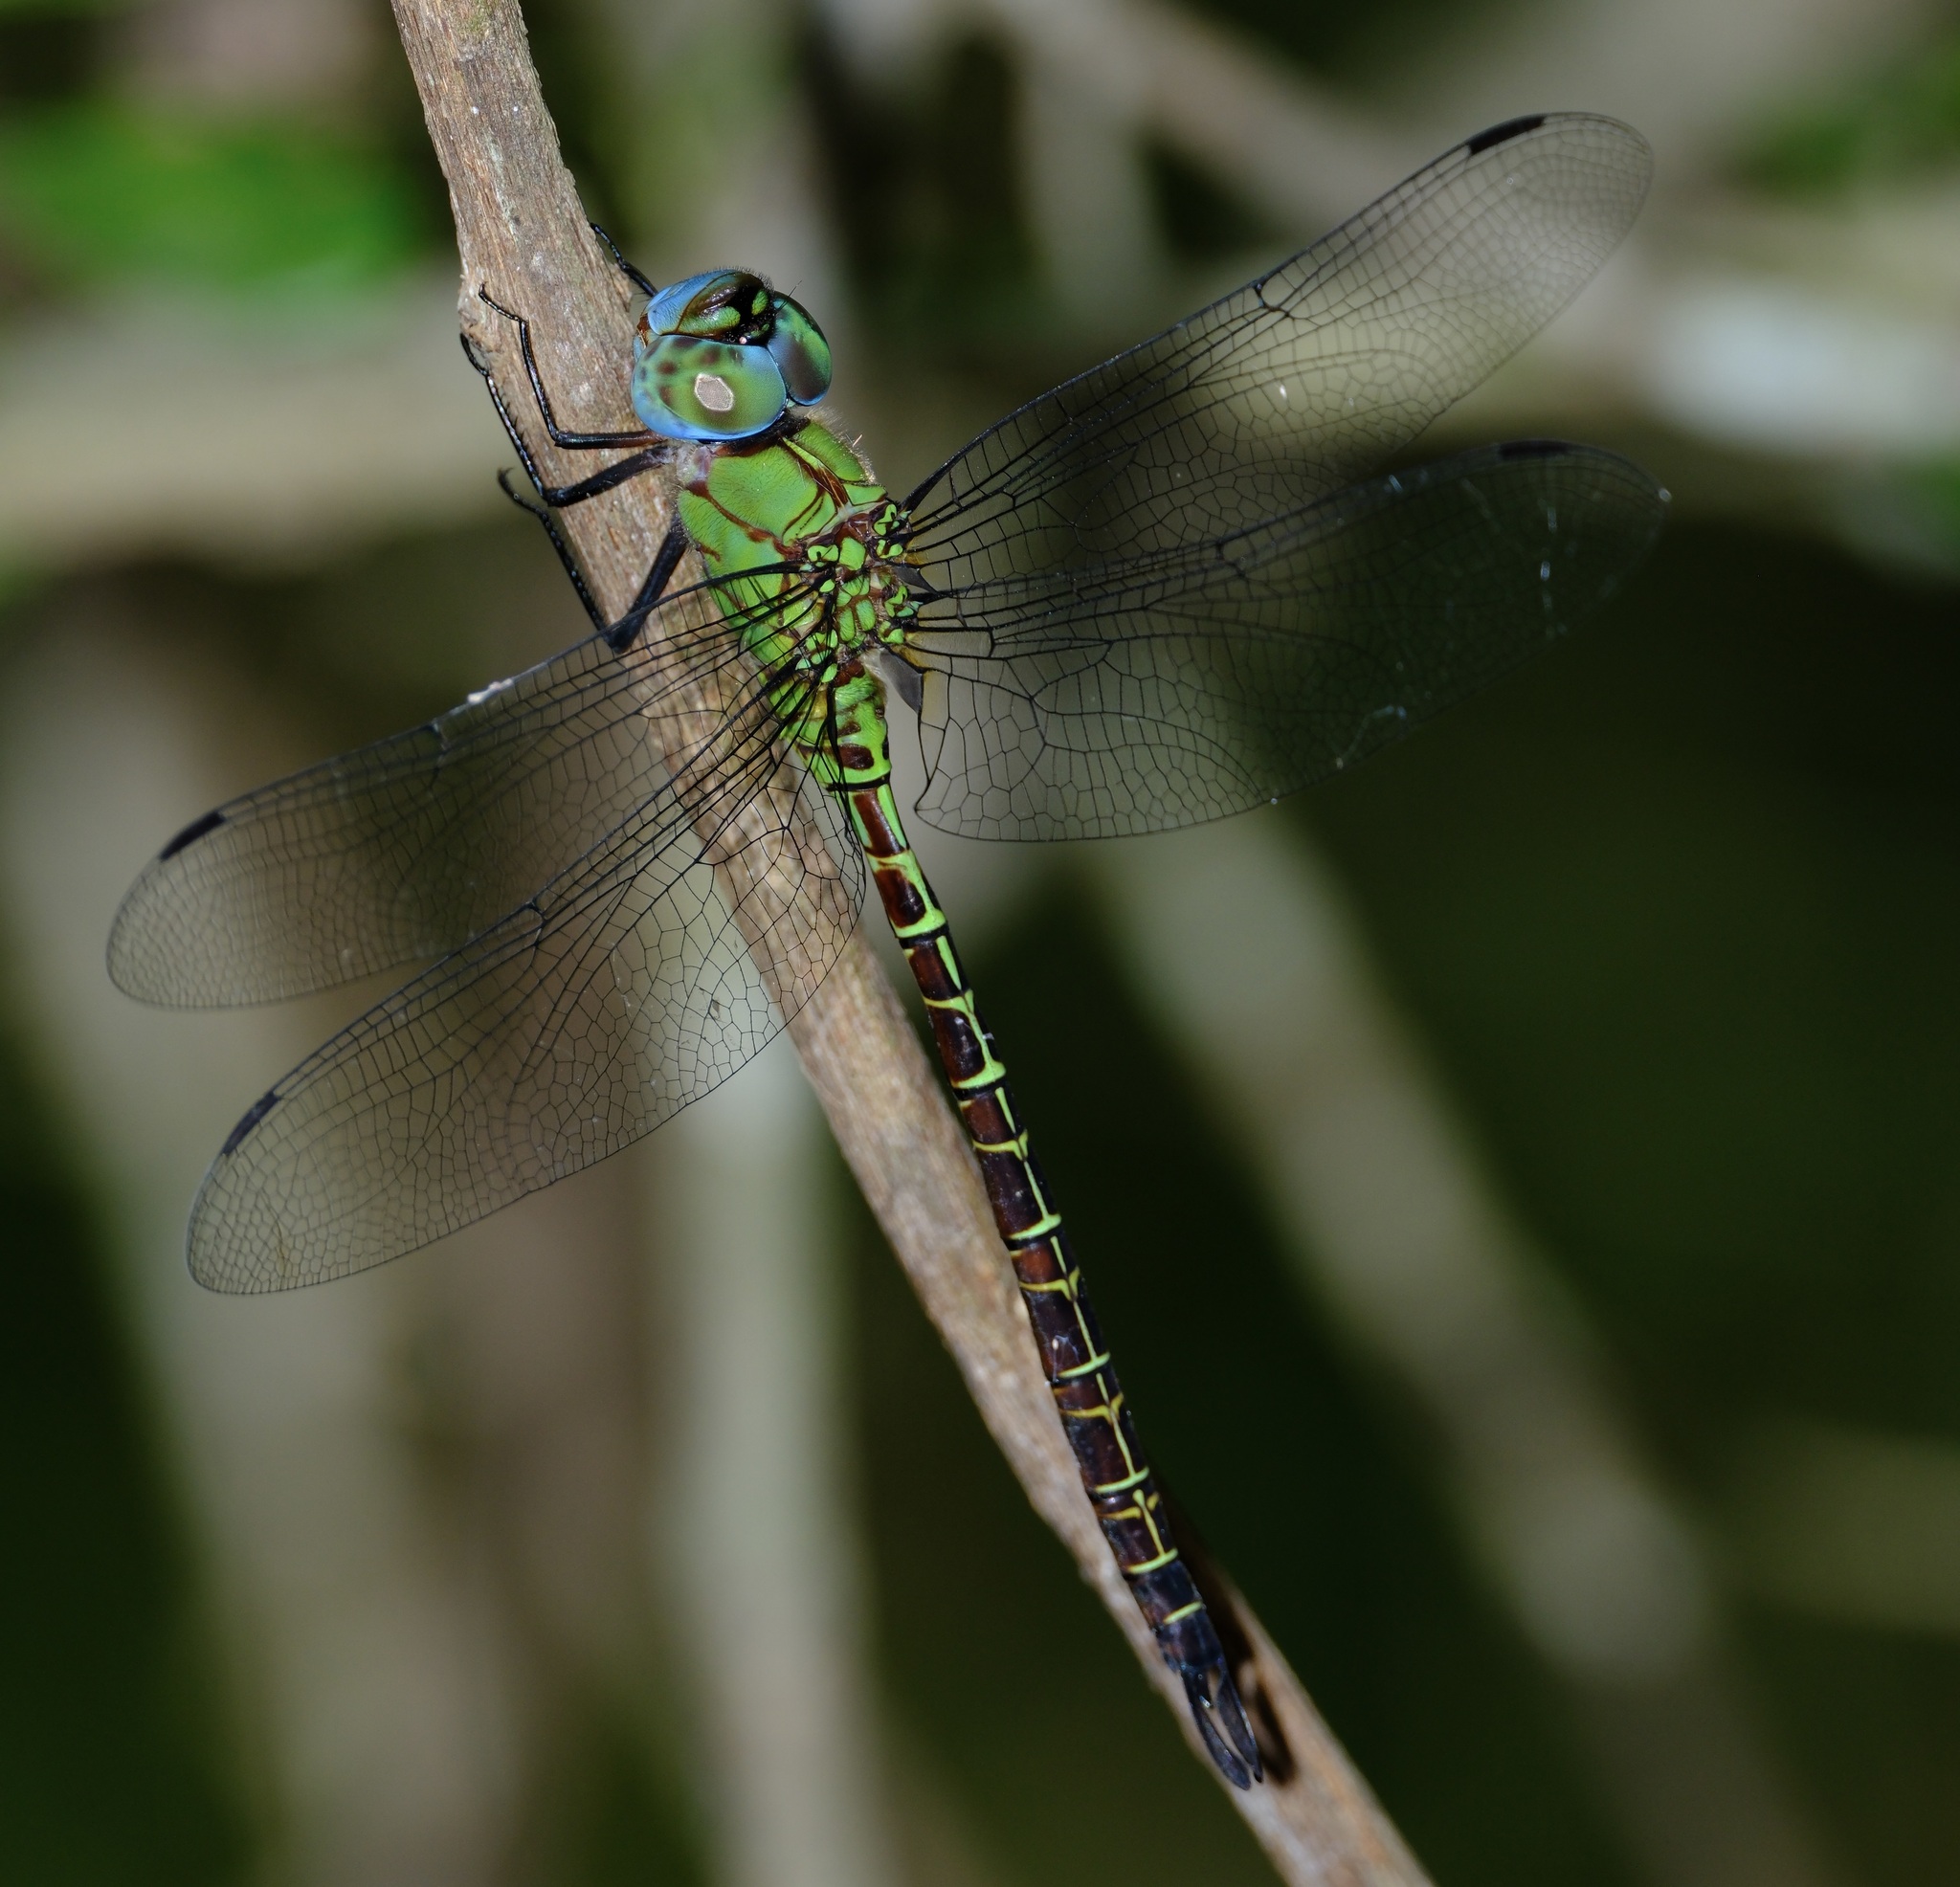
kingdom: Animalia
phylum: Arthropoda
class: Insecta
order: Odonata
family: Aeshnidae
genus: Coryphaeschna
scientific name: Coryphaeschna adnexa
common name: Blue-faced darner
